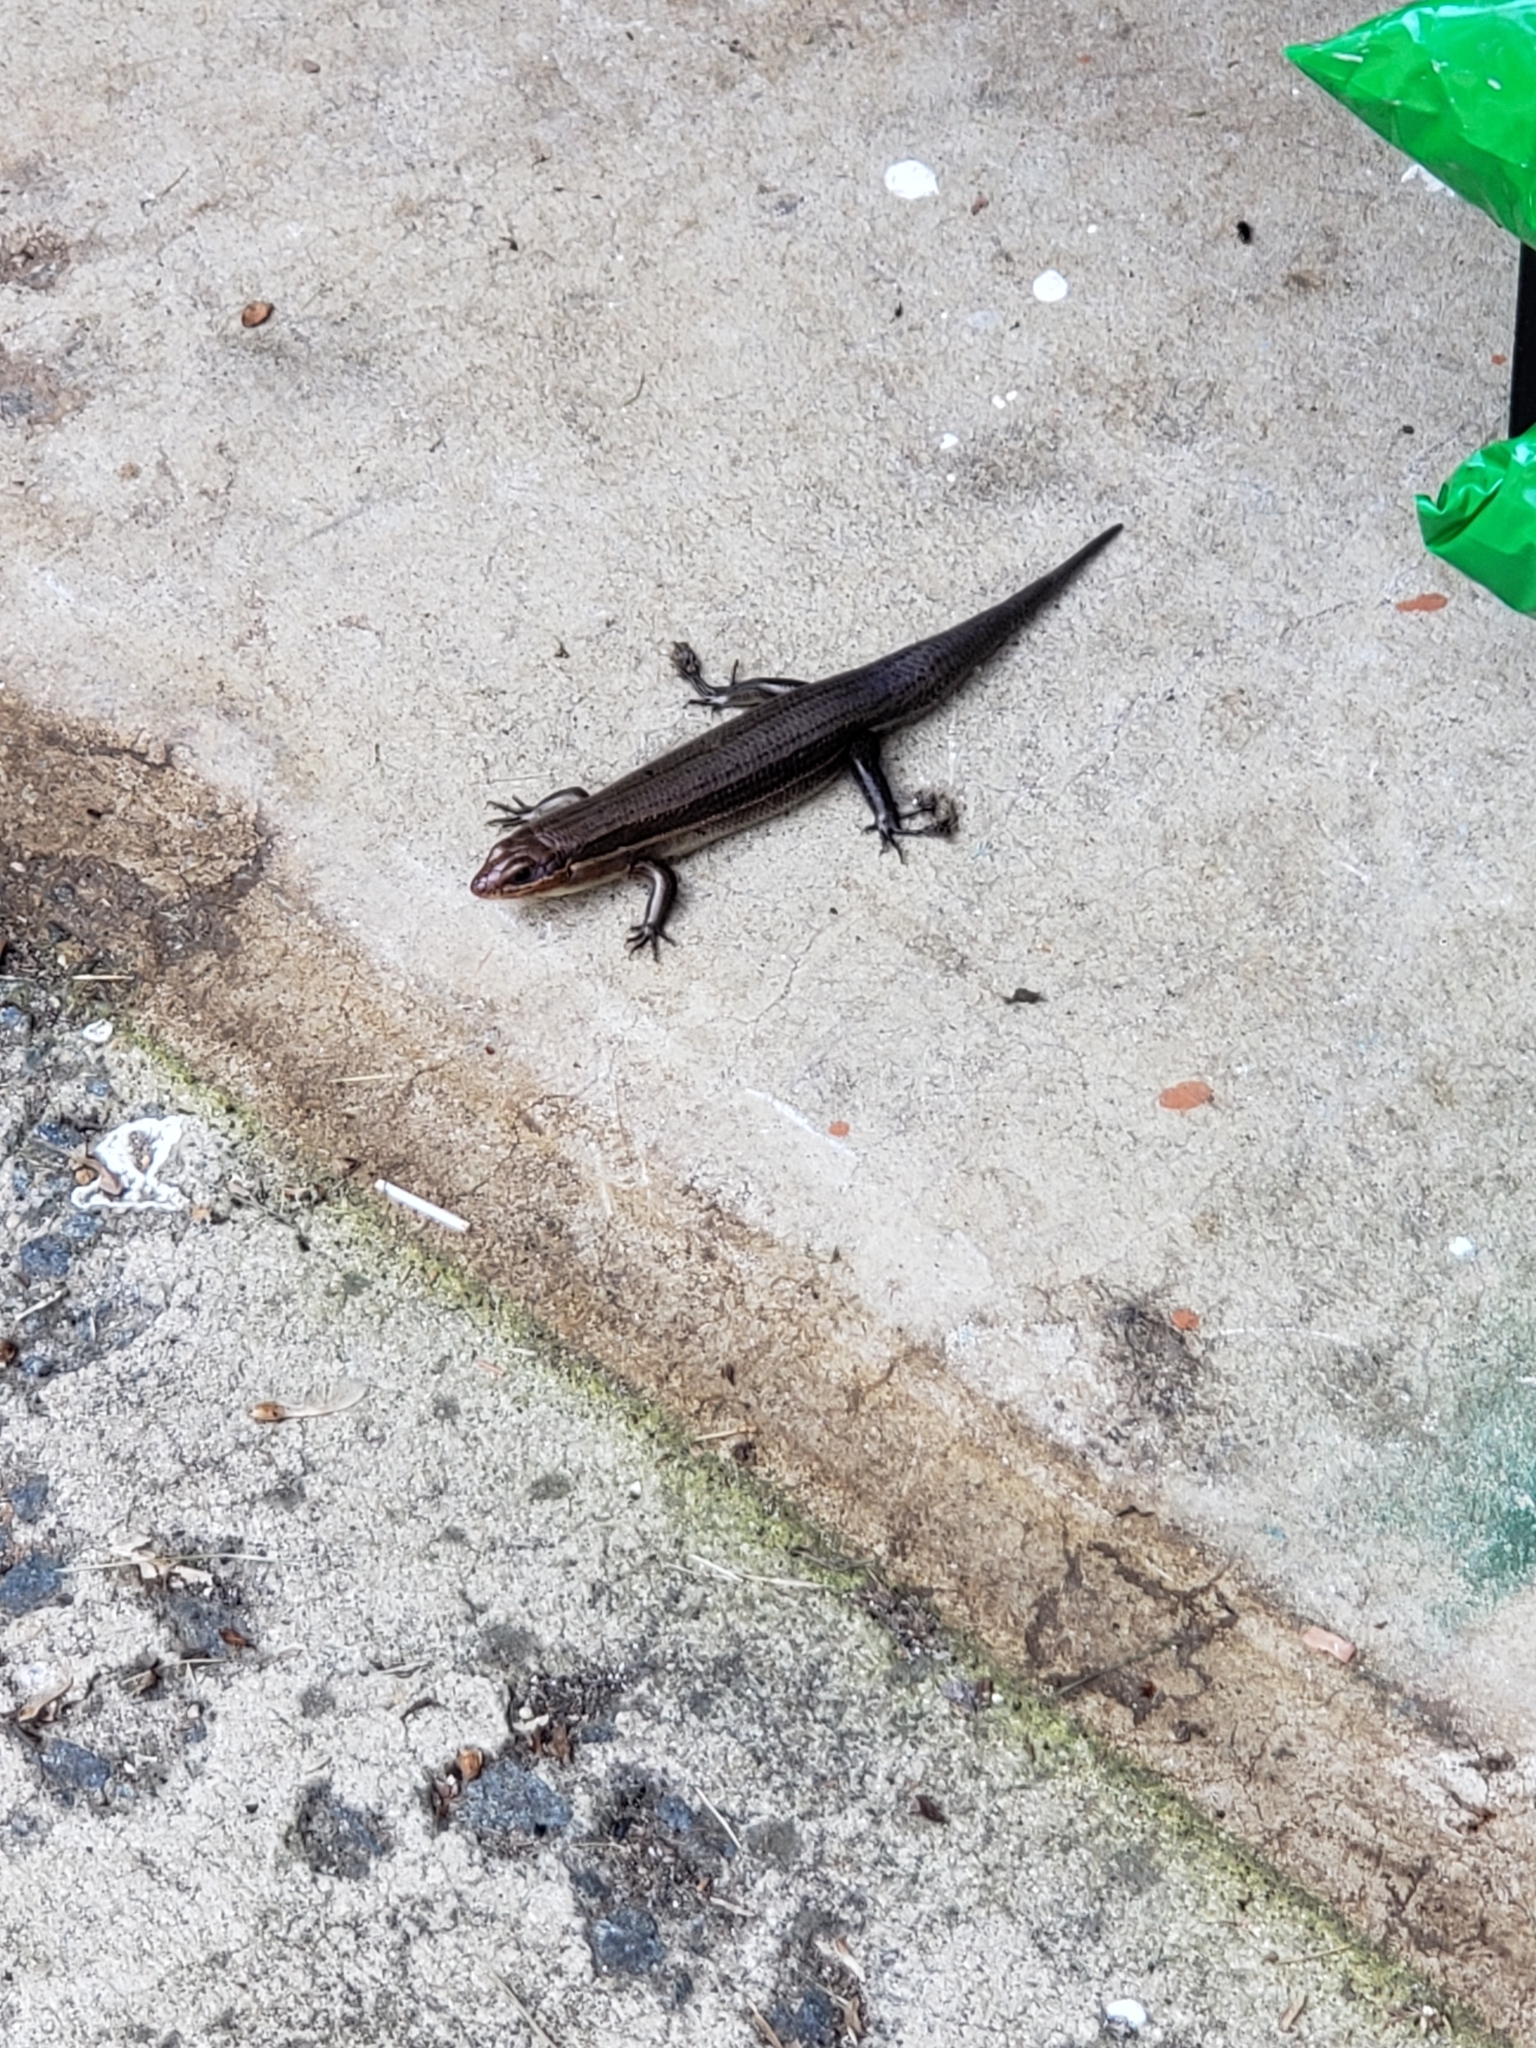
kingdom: Animalia
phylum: Chordata
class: Squamata
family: Scincidae
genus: Plestiodon
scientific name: Plestiodon laticeps
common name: Broadhead skink
